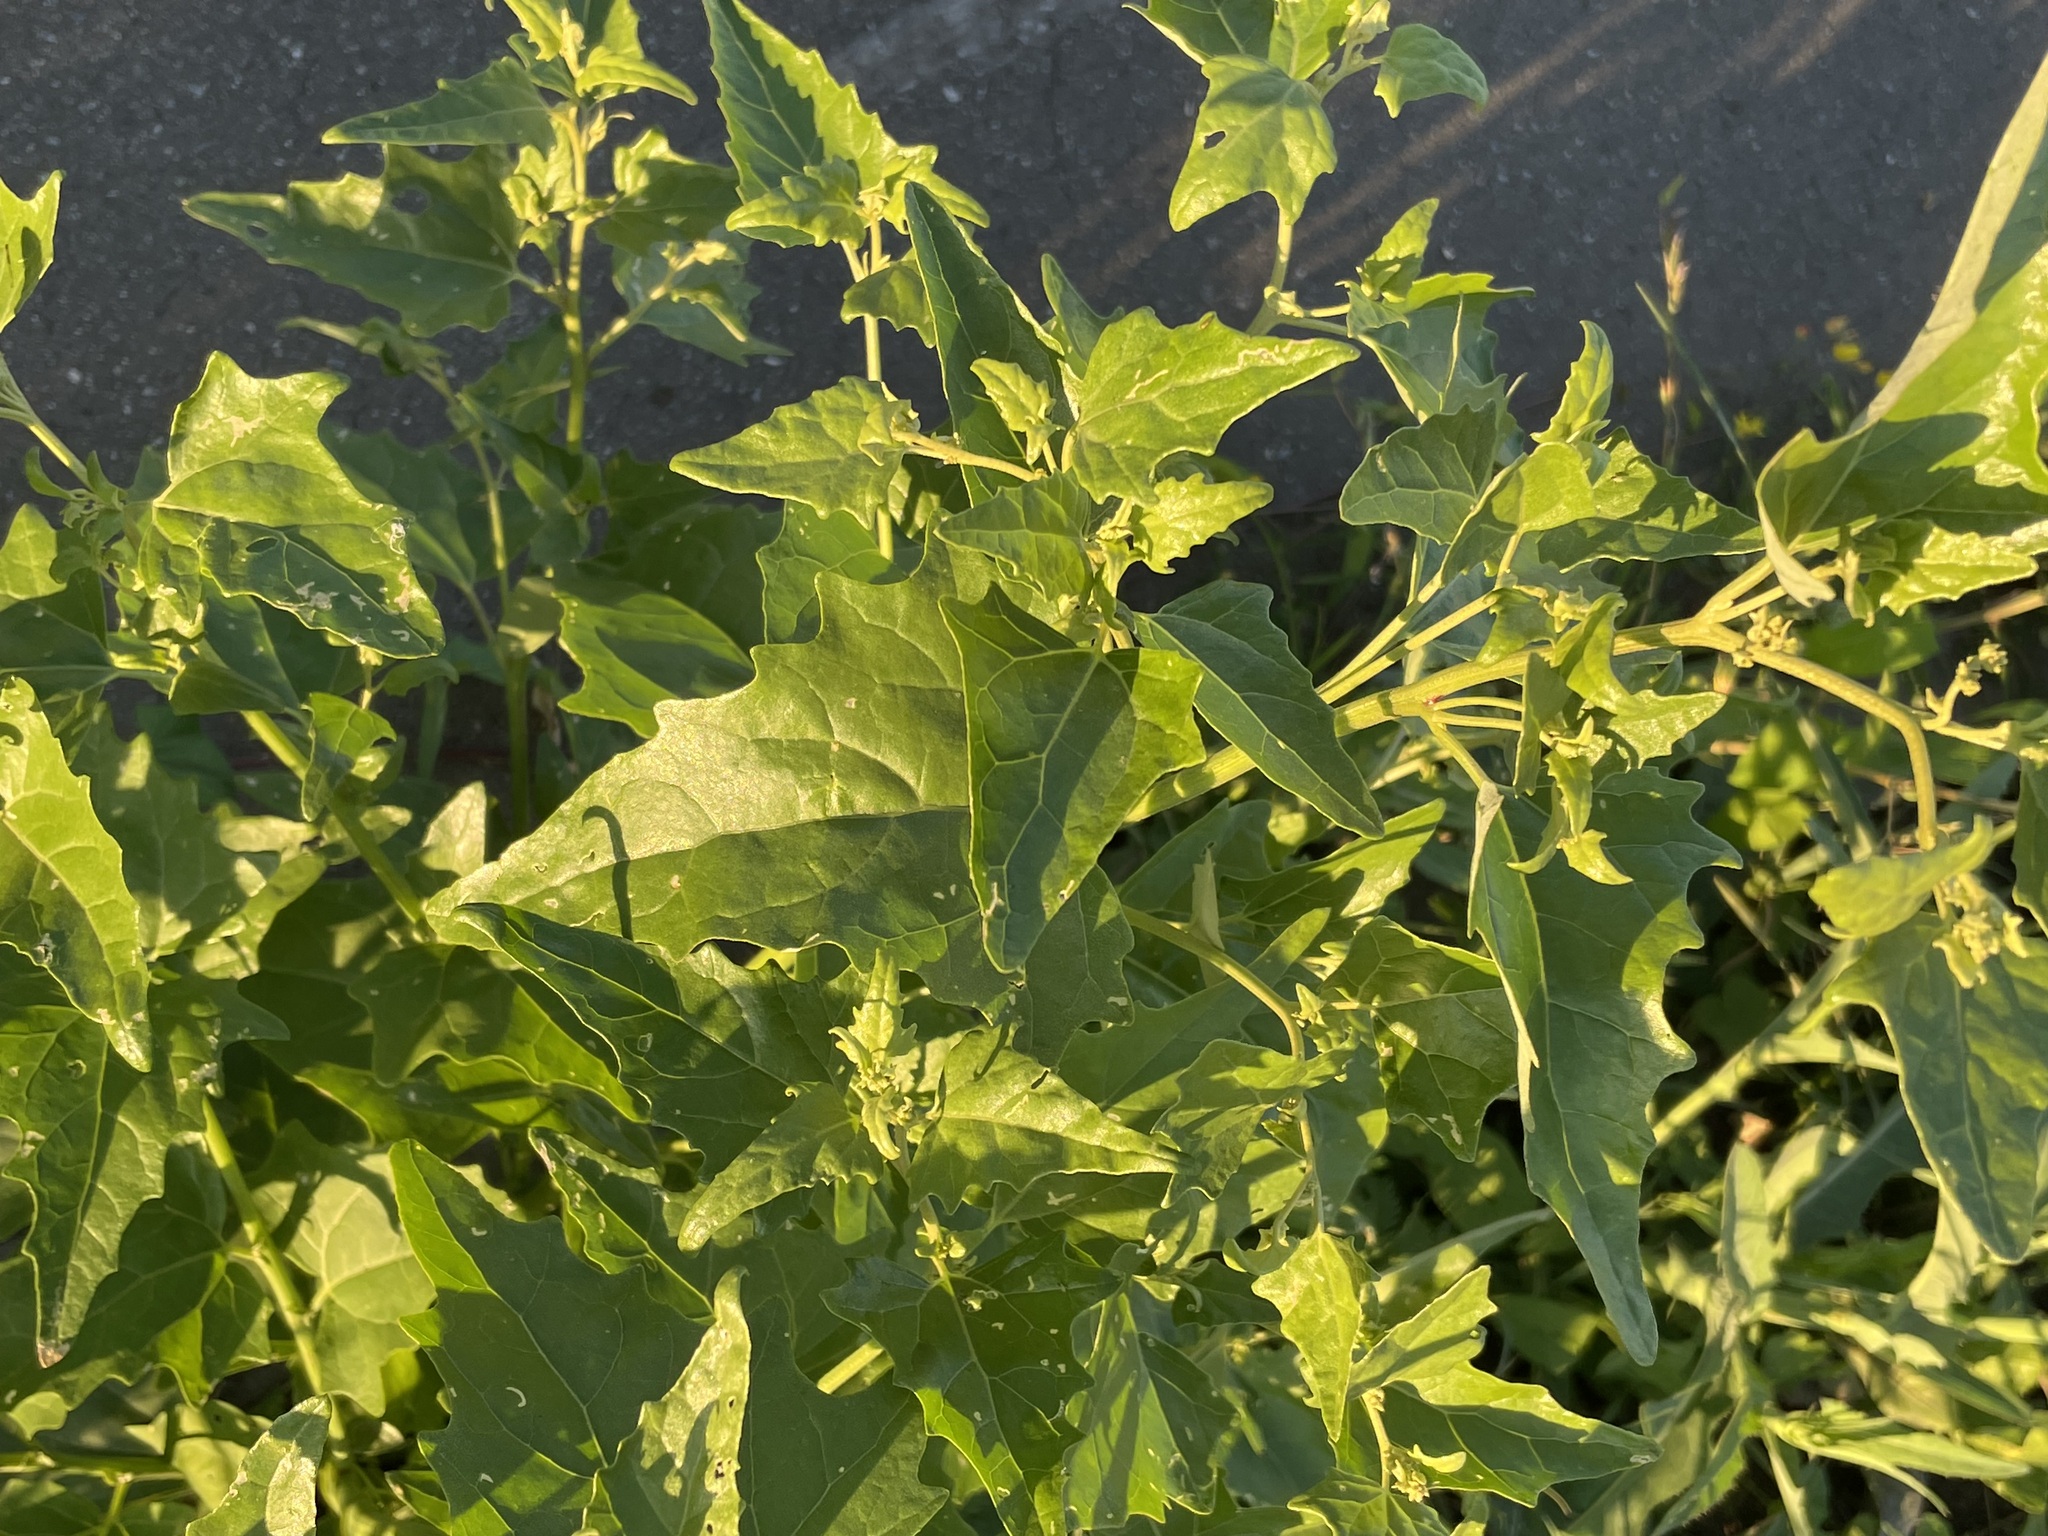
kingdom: Plantae
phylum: Tracheophyta
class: Magnoliopsida
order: Caryophyllales
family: Amaranthaceae
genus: Atriplex
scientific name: Atriplex sagittata
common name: Purple orache
